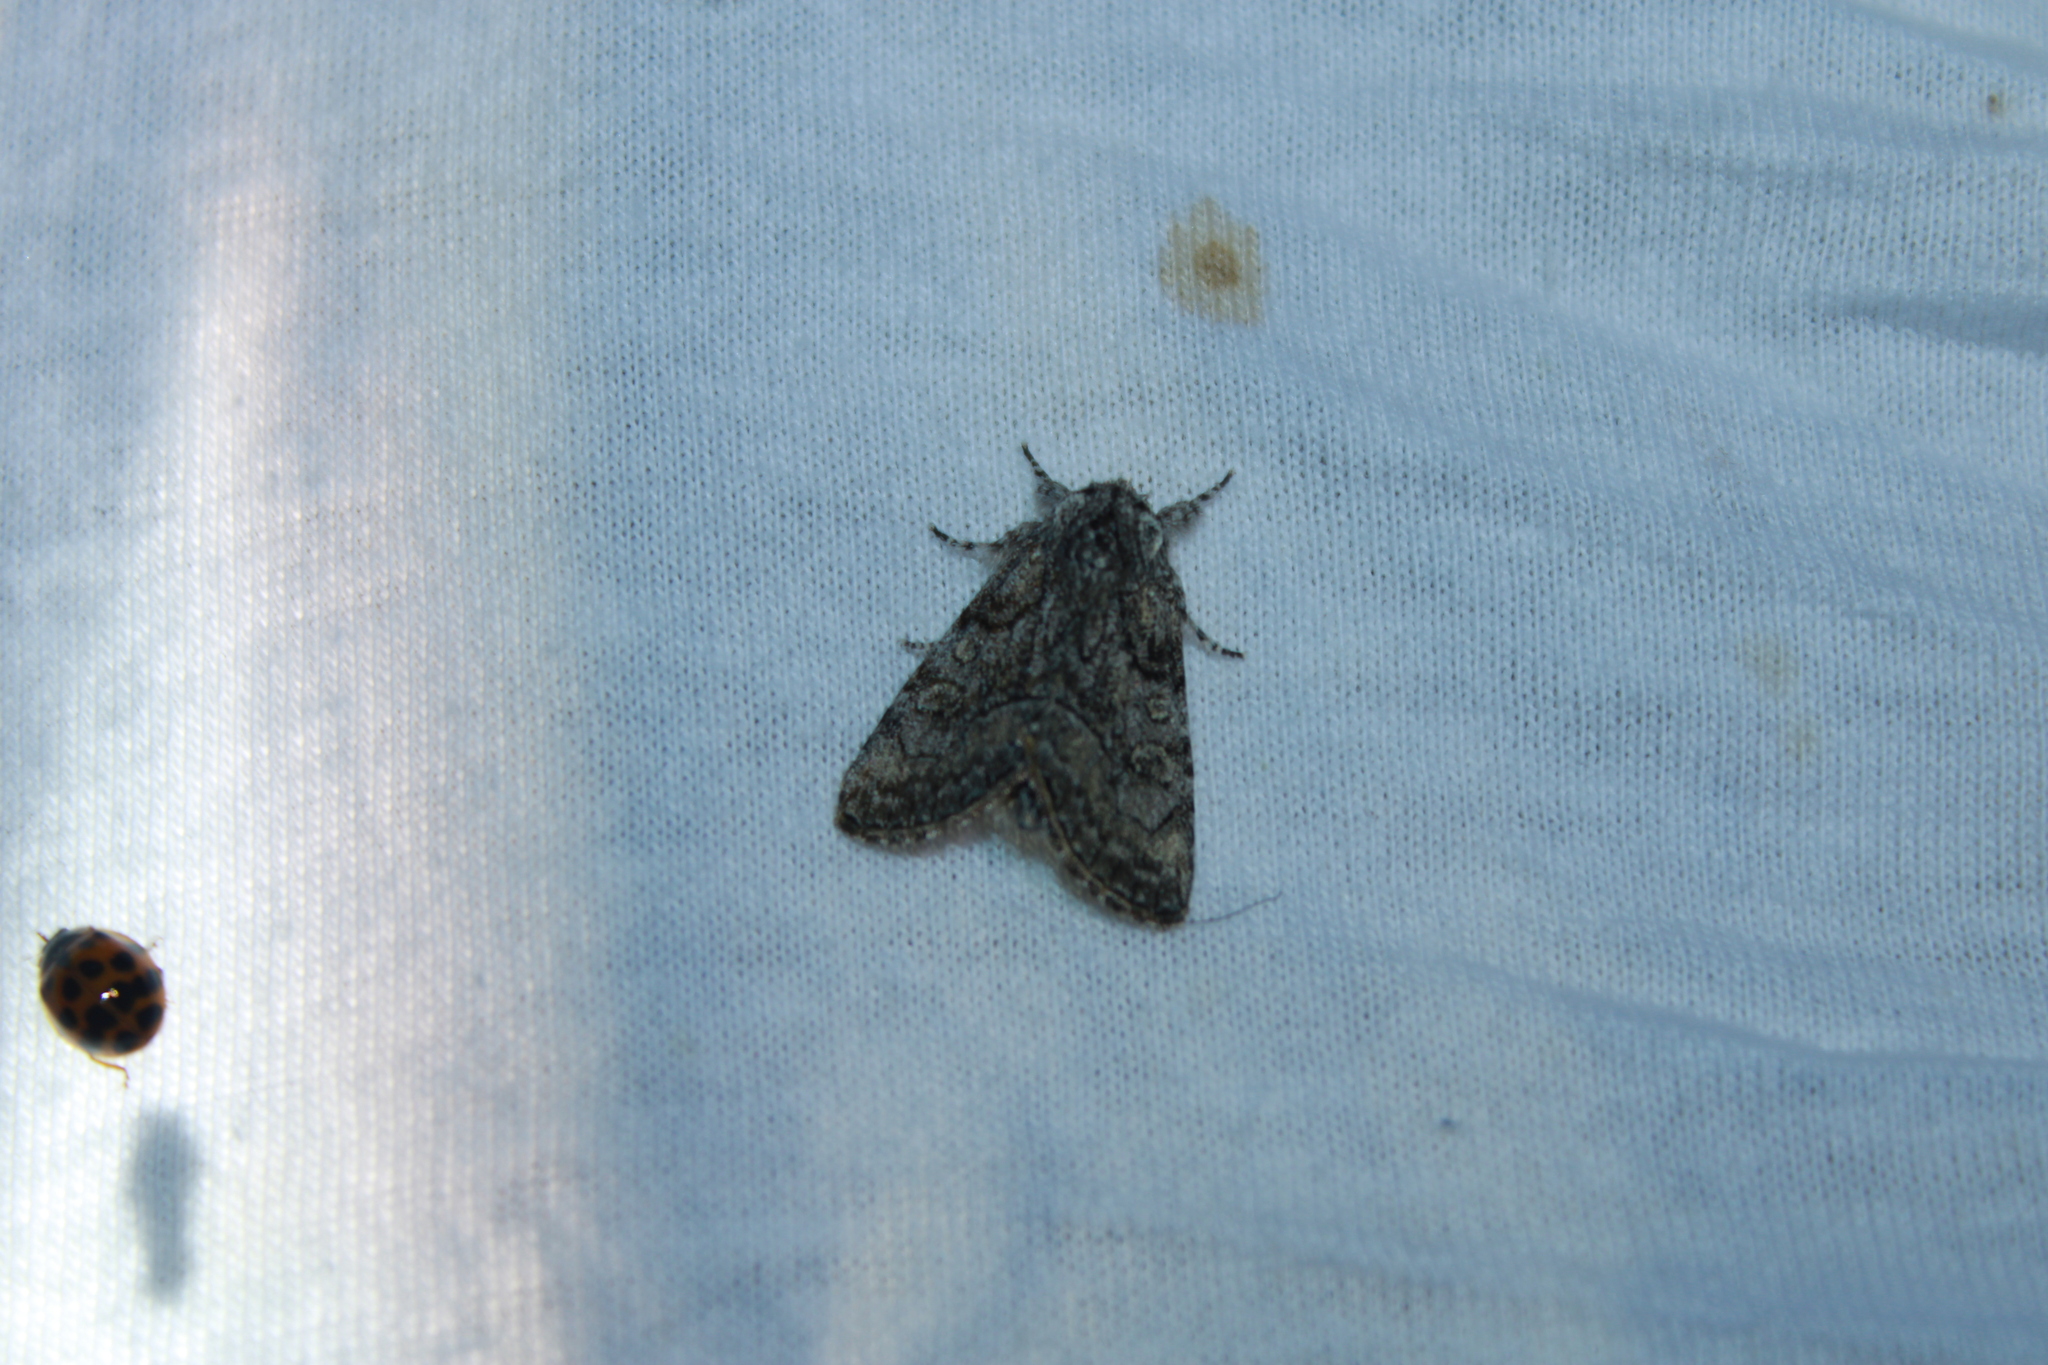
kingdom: Animalia
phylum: Arthropoda
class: Insecta
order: Lepidoptera
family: Noctuidae
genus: Raphia
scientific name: Raphia frater
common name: Brother
